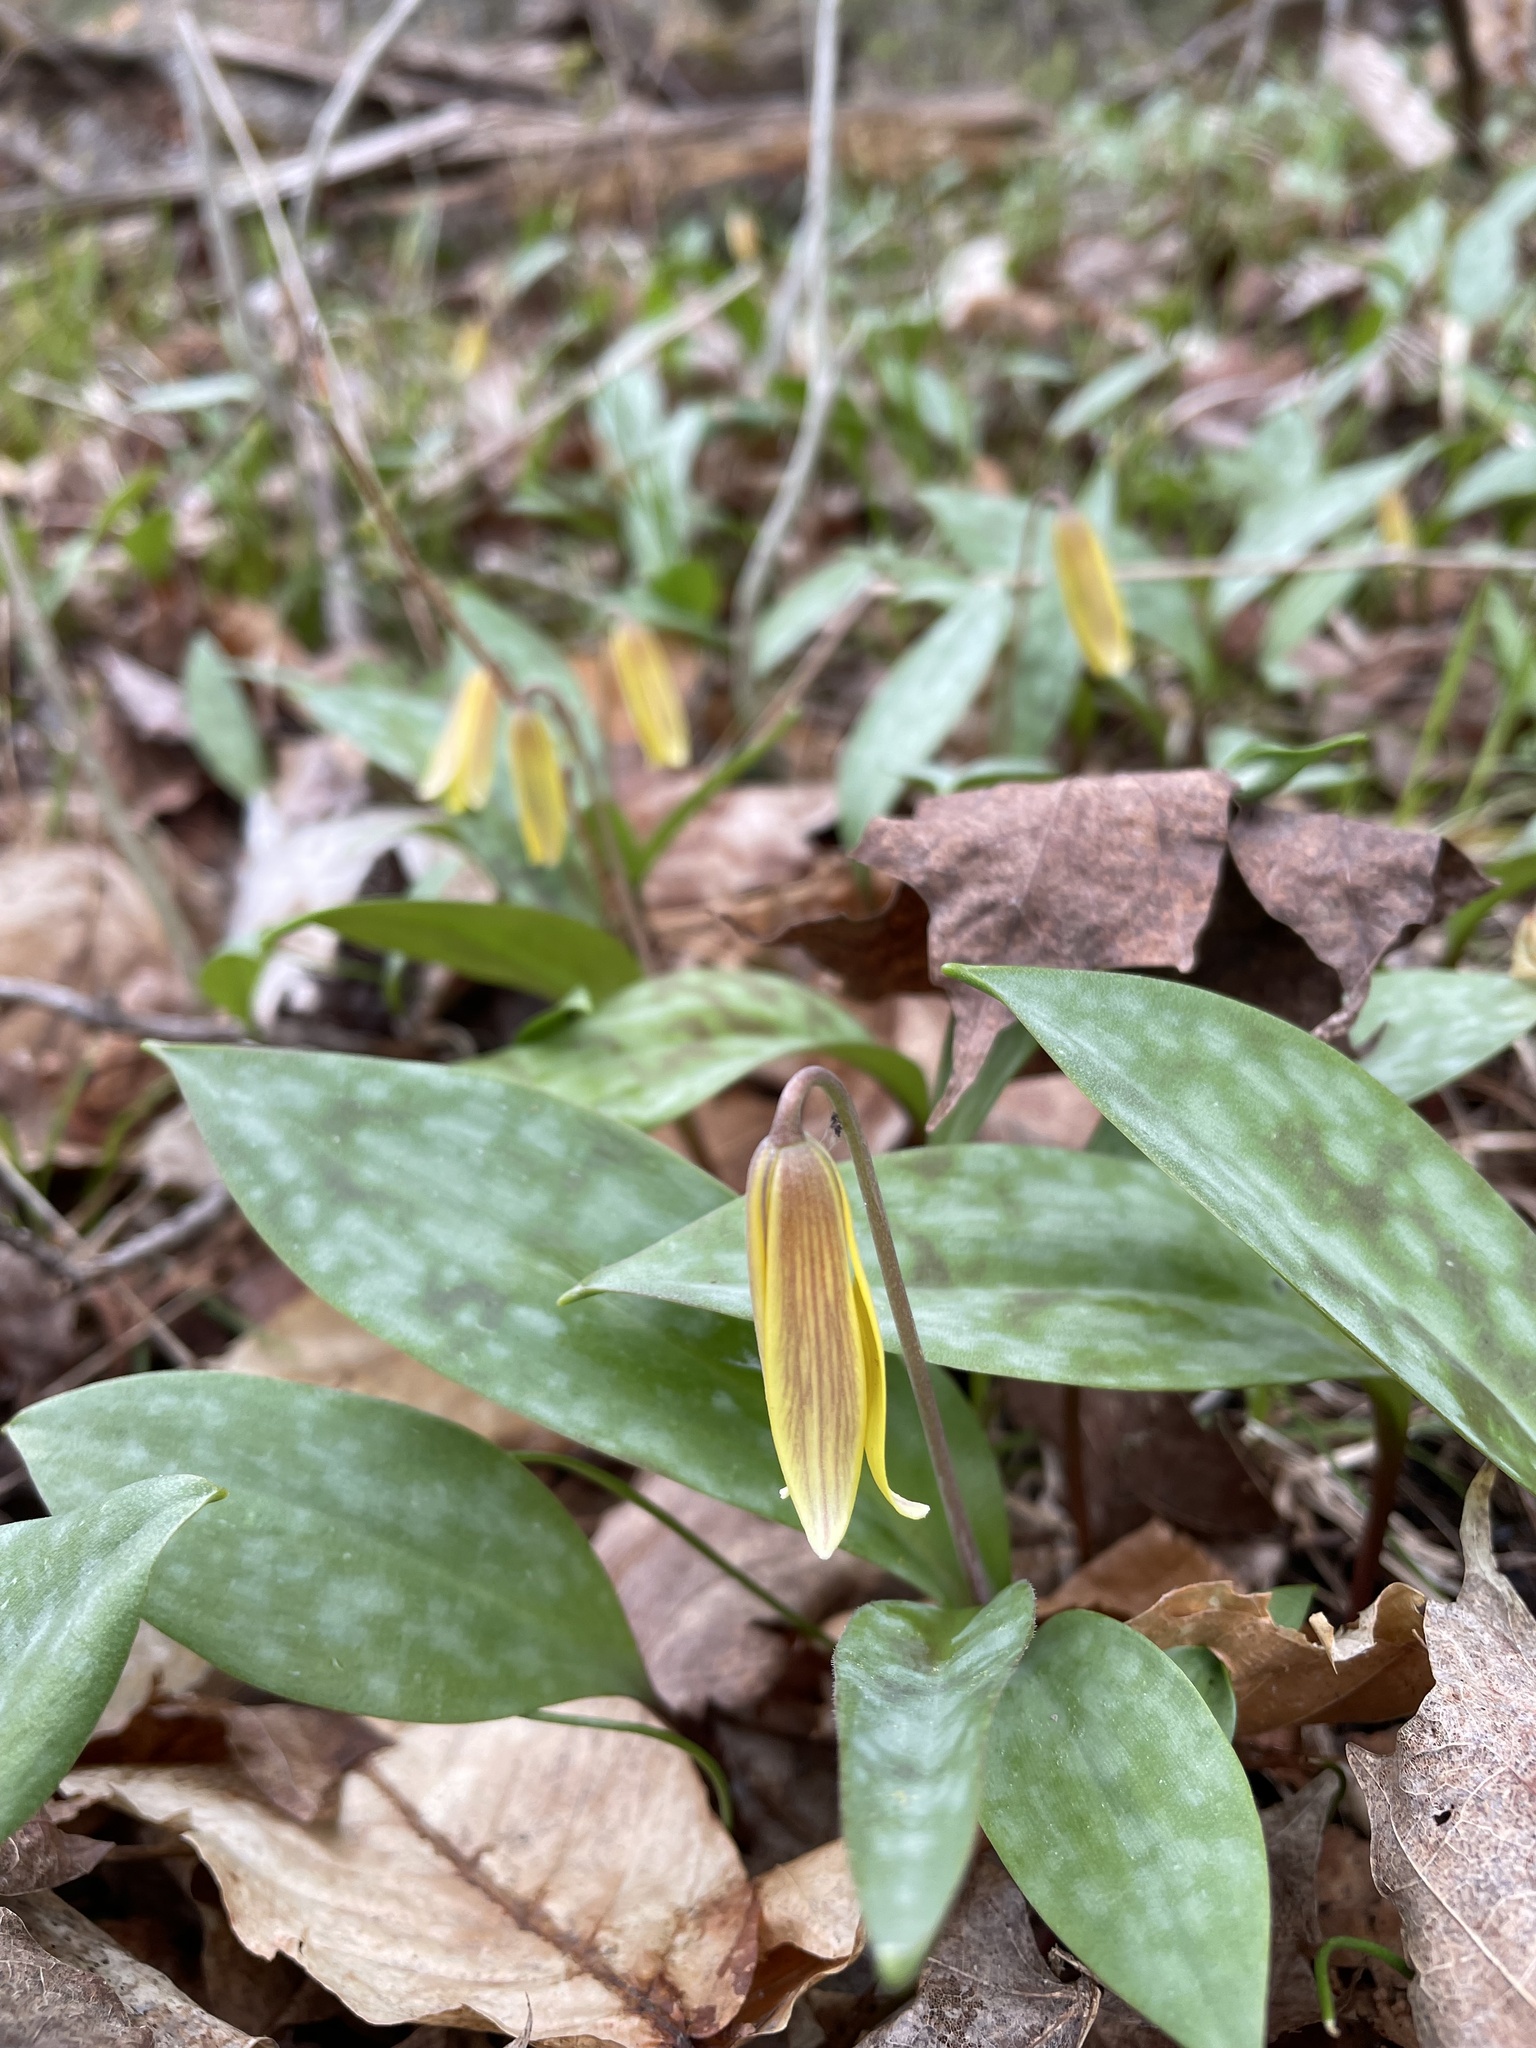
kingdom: Plantae
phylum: Tracheophyta
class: Liliopsida
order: Liliales
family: Liliaceae
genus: Erythronium
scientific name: Erythronium americanum
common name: Yellow adder's-tongue
